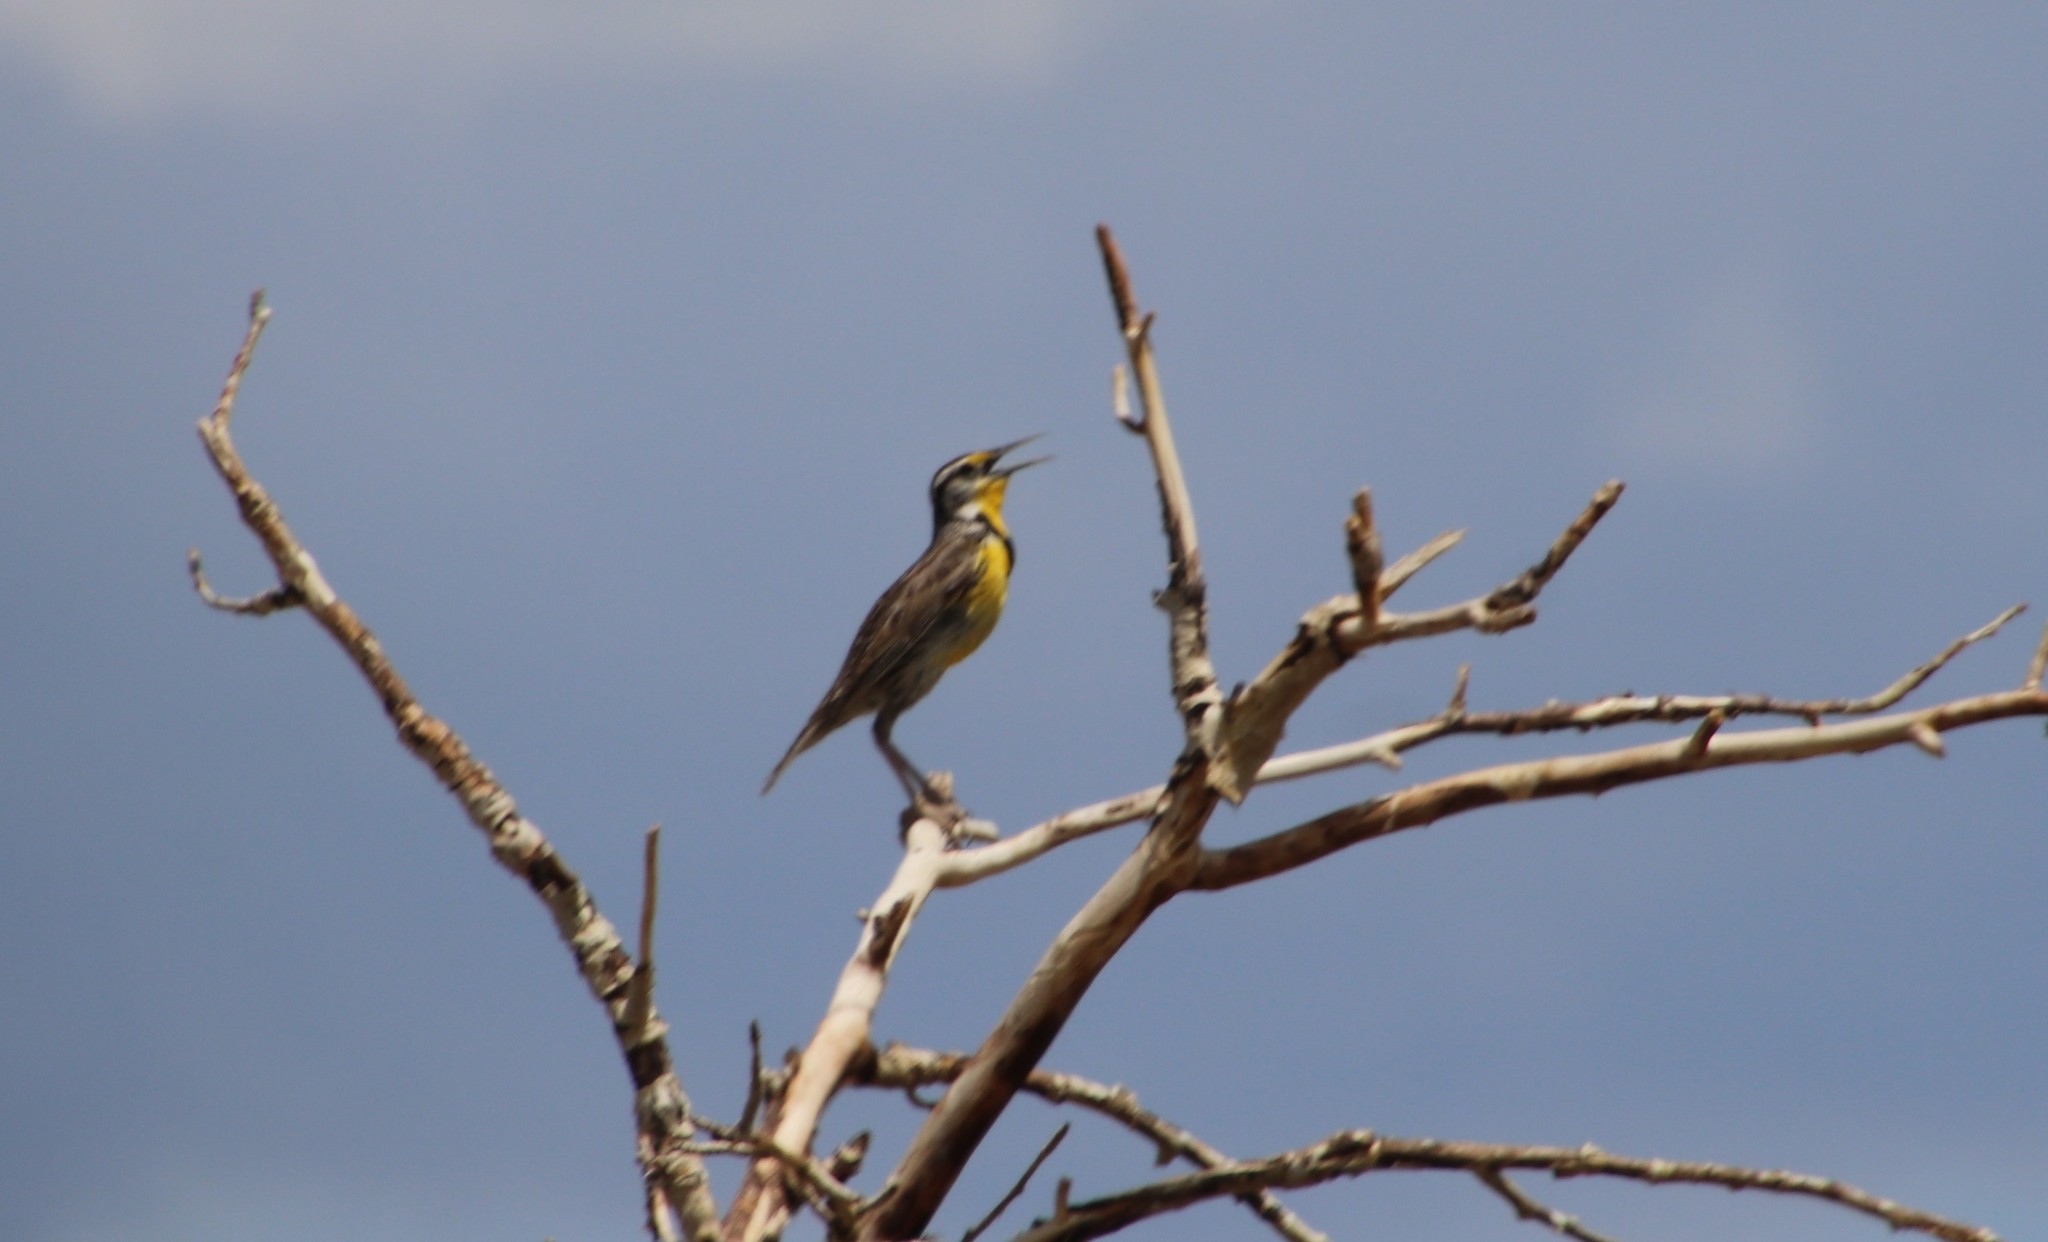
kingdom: Animalia
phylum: Chordata
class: Aves
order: Passeriformes
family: Icteridae
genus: Sturnella
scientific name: Sturnella neglecta
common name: Western meadowlark
